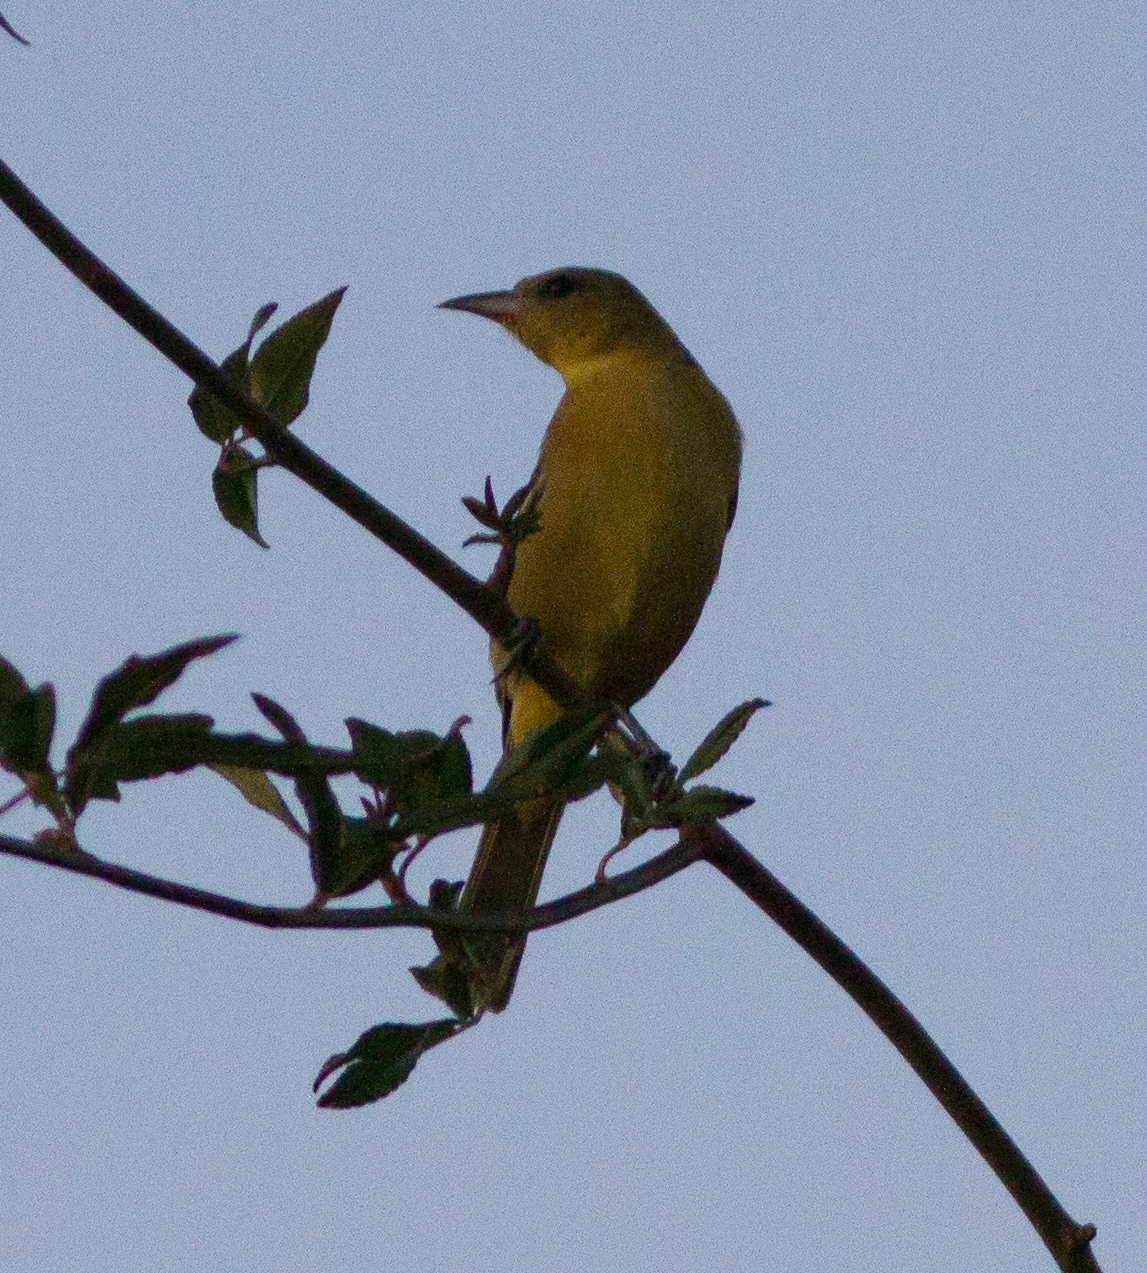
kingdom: Animalia
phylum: Chordata
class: Aves
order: Passeriformes
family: Icteridae
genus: Icterus
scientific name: Icterus spurius
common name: Orchard oriole
